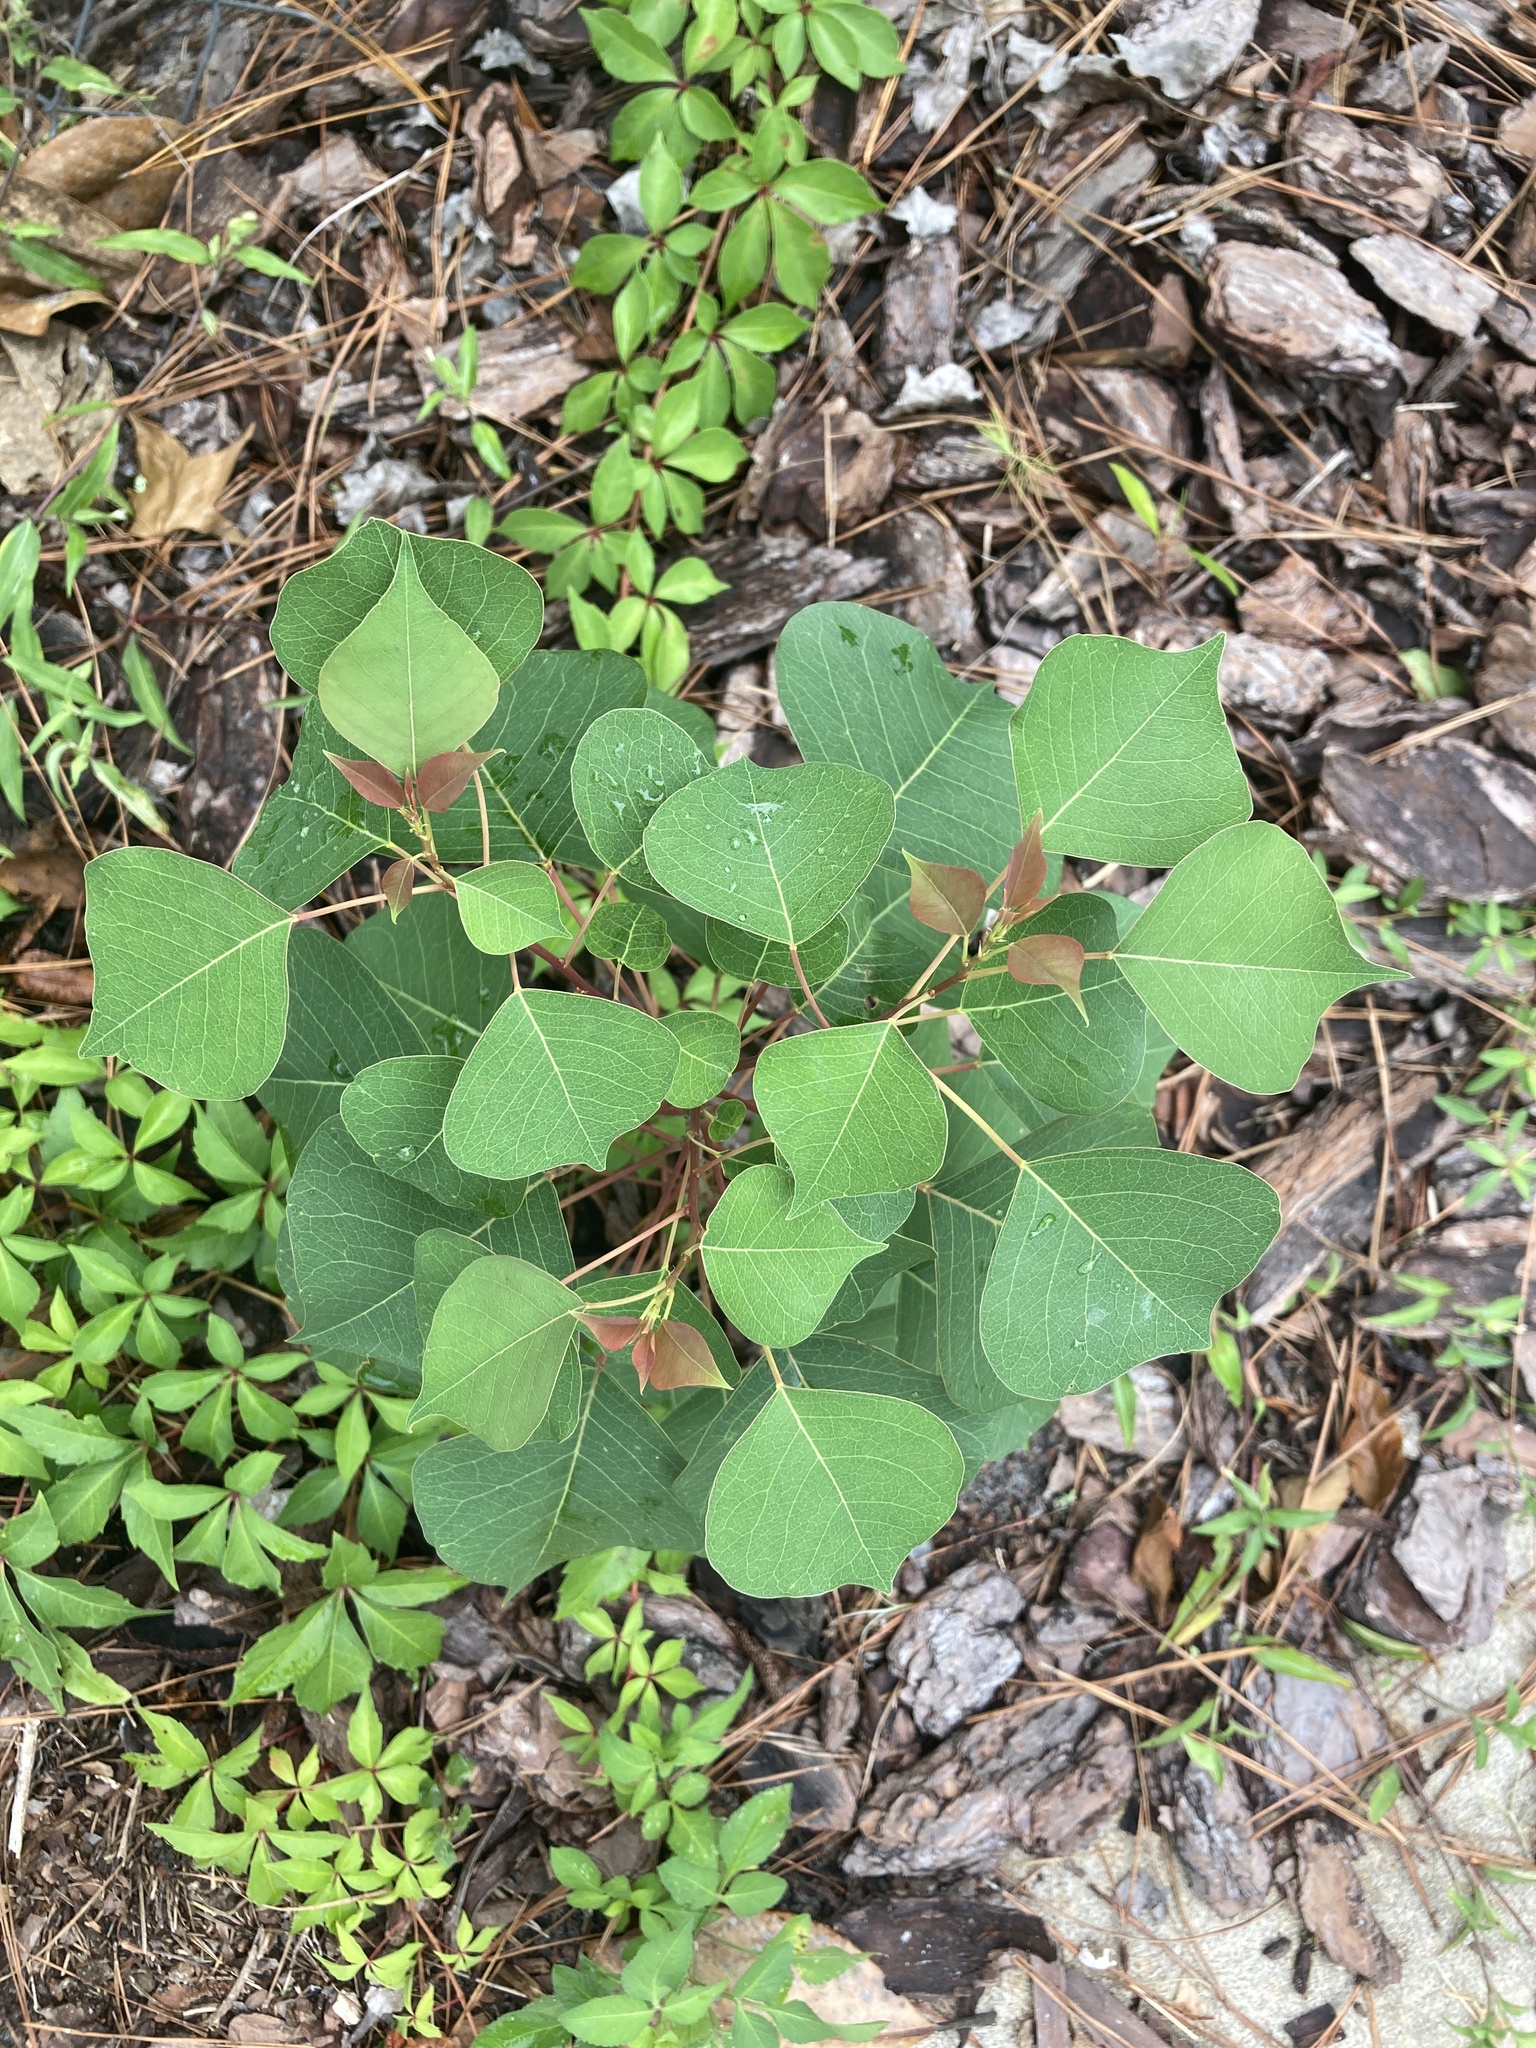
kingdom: Plantae
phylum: Tracheophyta
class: Magnoliopsida
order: Malpighiales
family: Euphorbiaceae
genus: Triadica
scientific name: Triadica sebifera
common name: Chinese tallow
